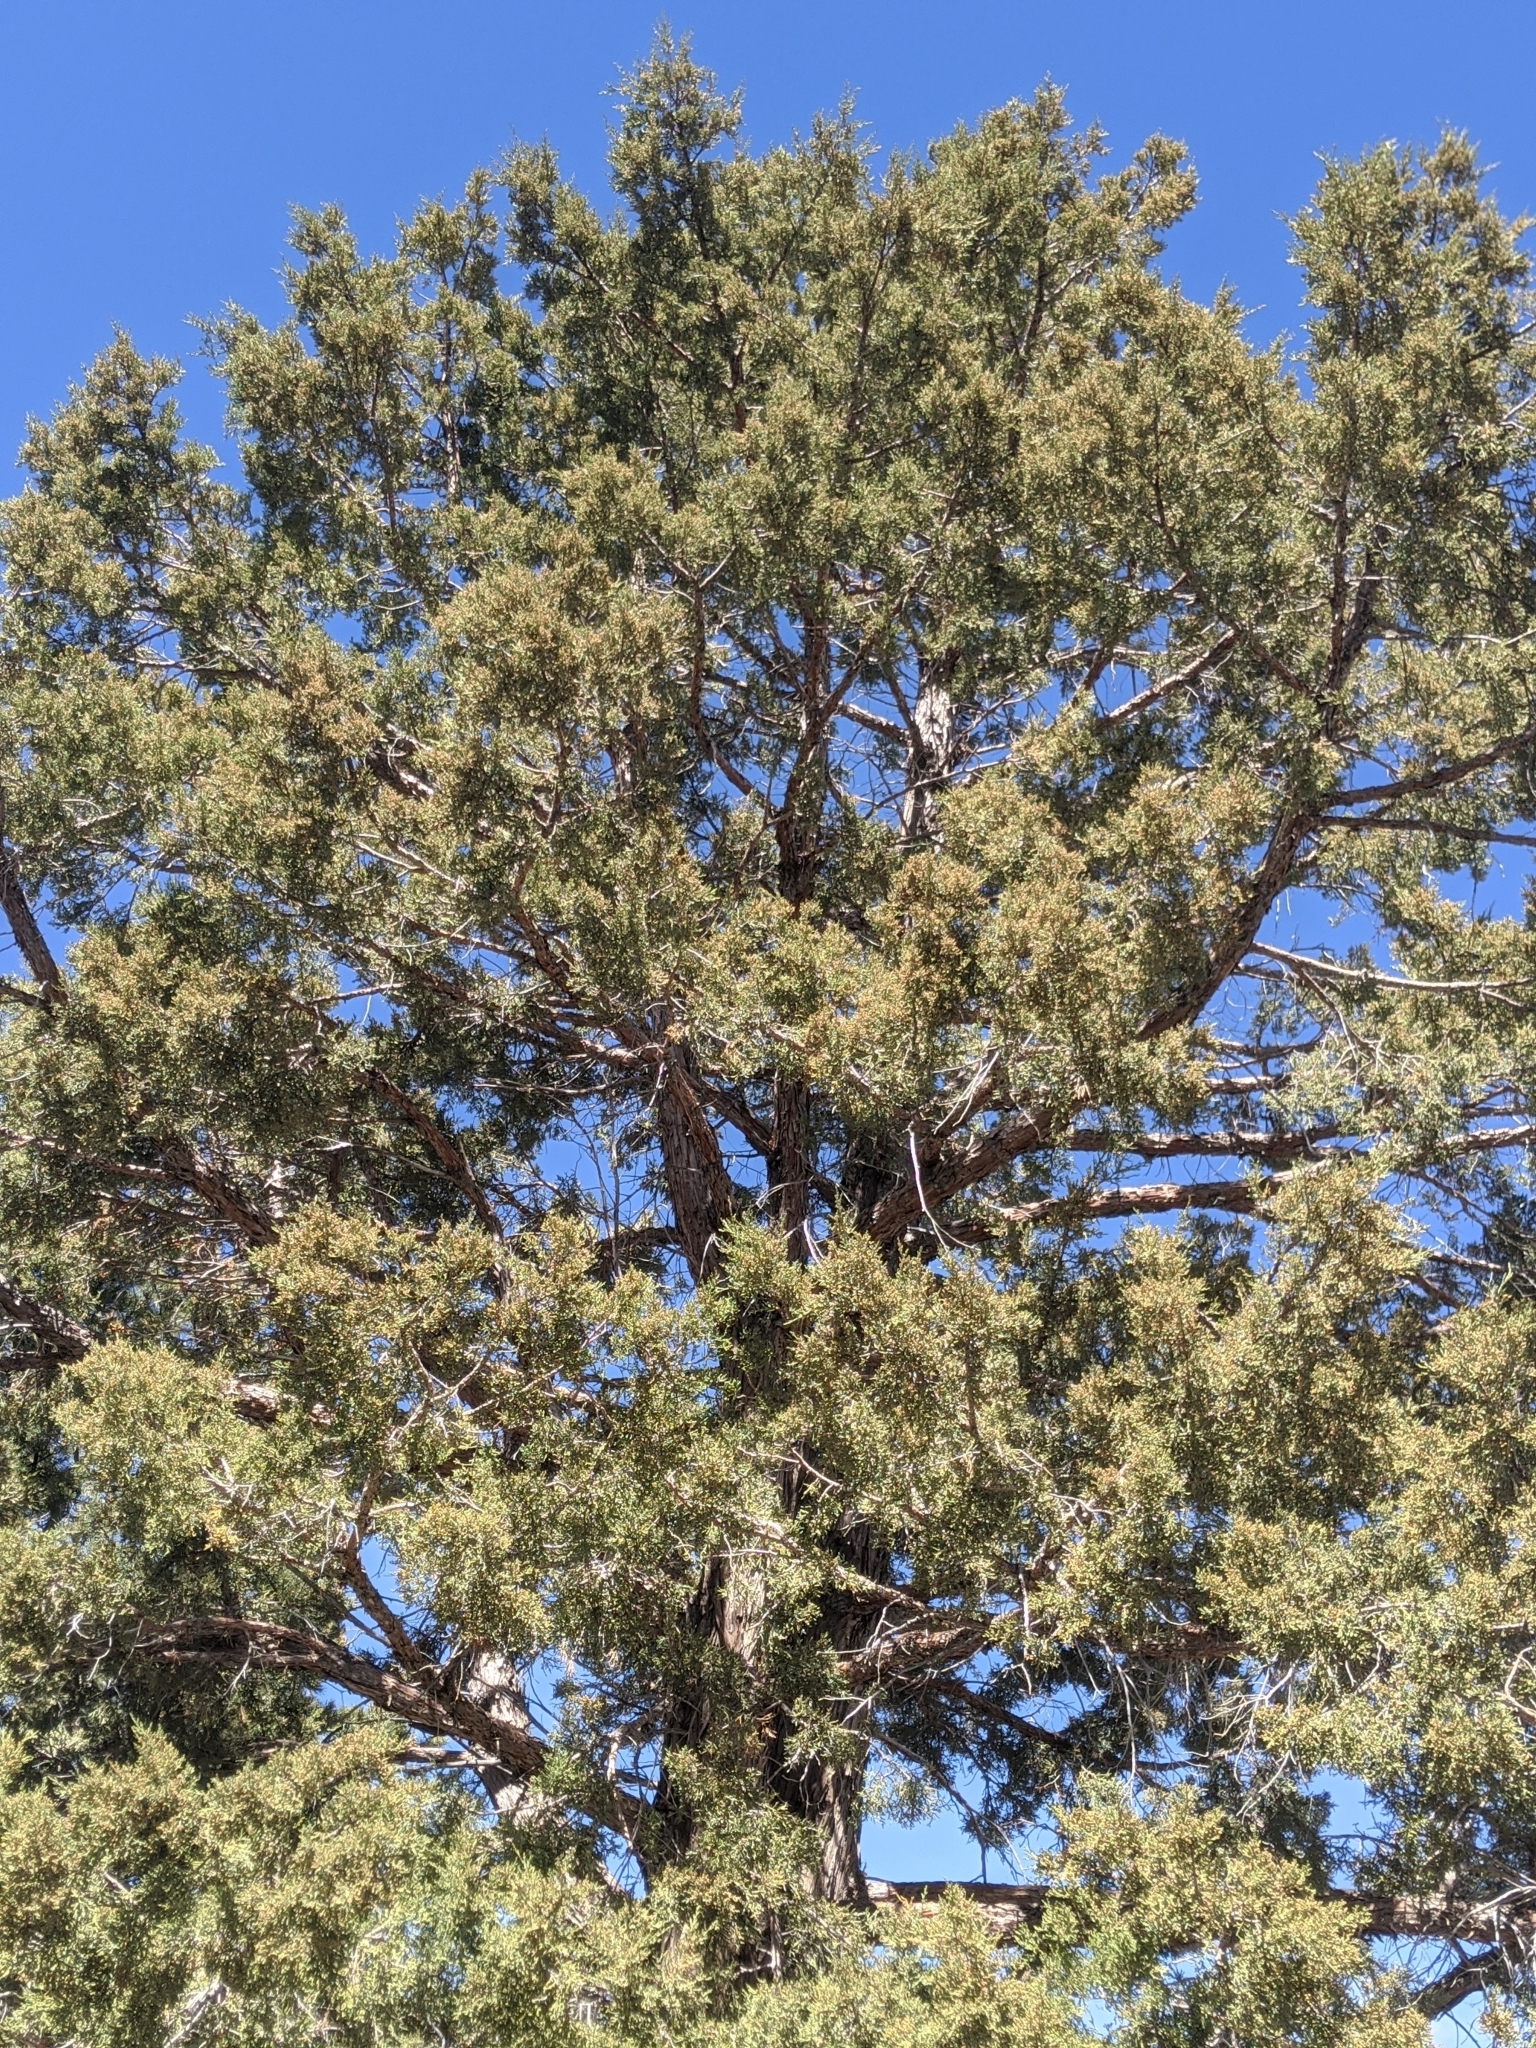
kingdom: Plantae
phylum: Tracheophyta
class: Pinopsida
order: Pinales
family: Cupressaceae
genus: Juniperus
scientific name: Juniperus occidentalis
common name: Western juniper
